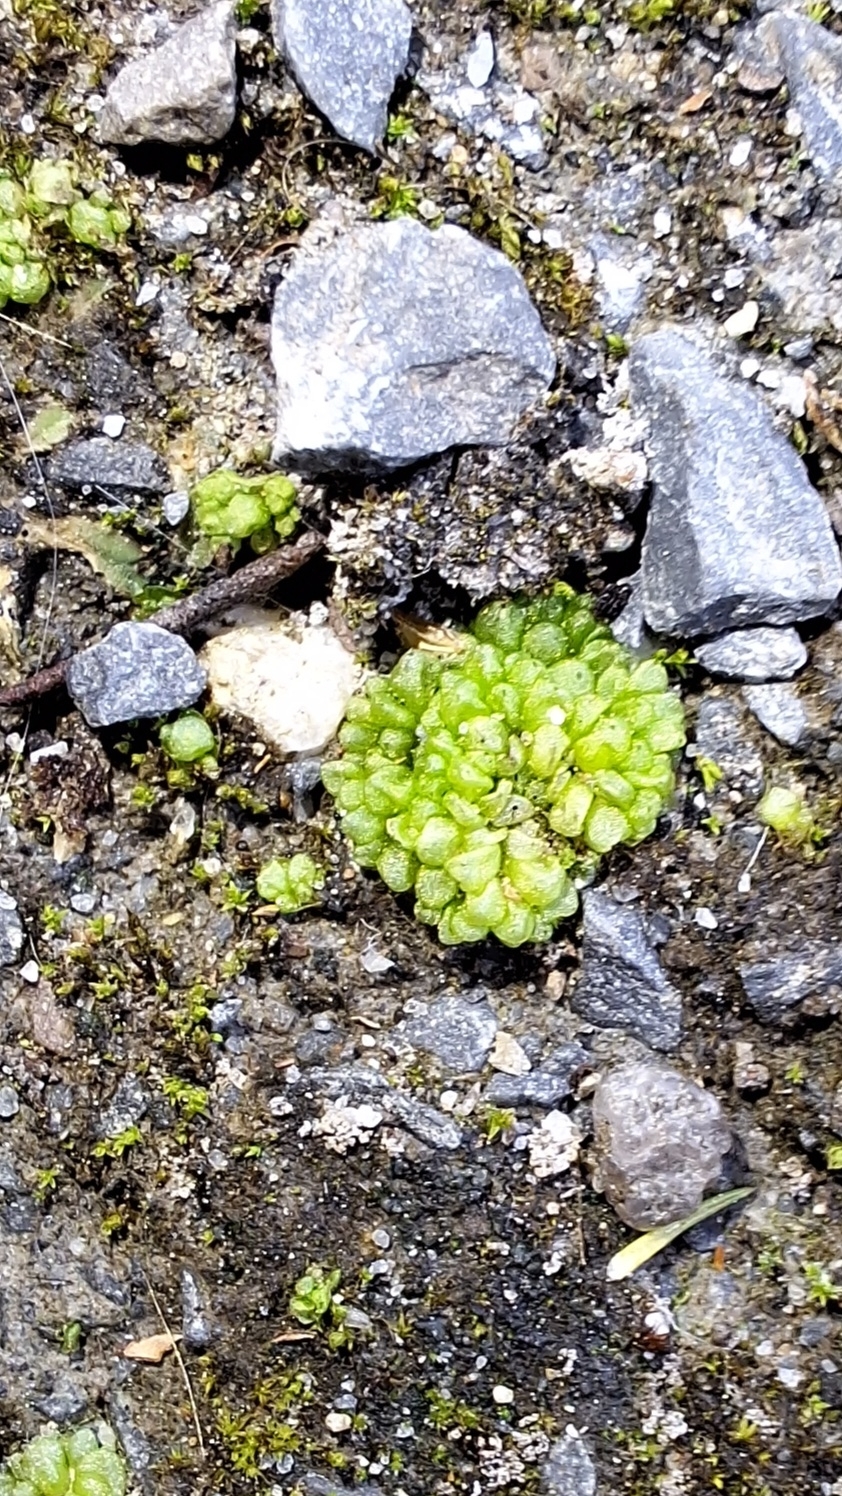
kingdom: Plantae
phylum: Marchantiophyta
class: Marchantiopsida
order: Sphaerocarpales
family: Sphaerocarpaceae
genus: Sphaerocarpos
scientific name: Sphaerocarpos texanus
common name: Texas balloonwort
